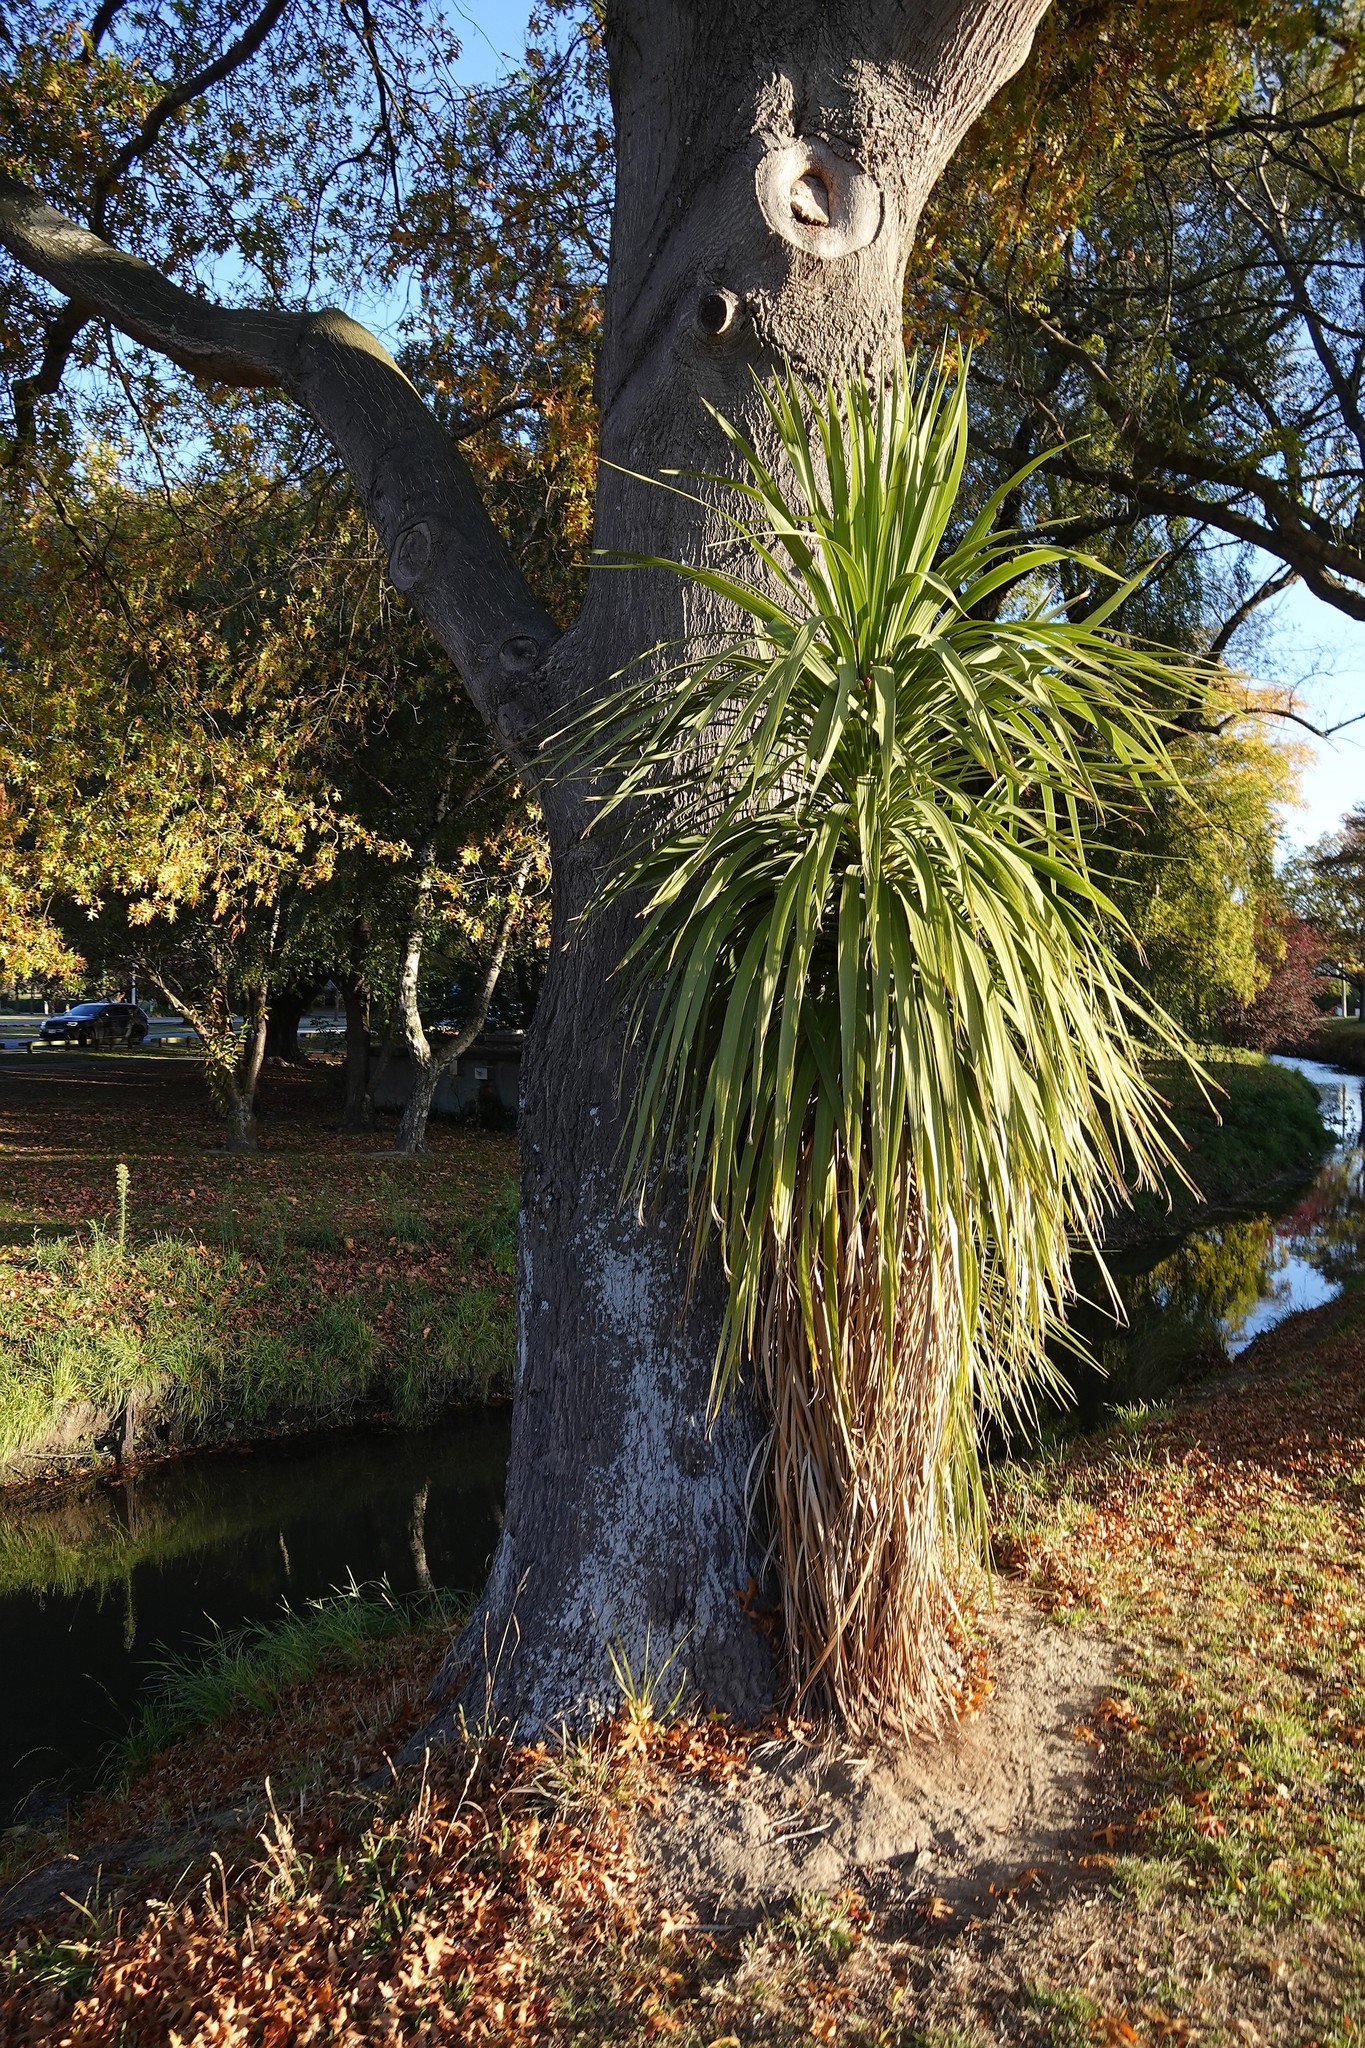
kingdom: Plantae
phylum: Tracheophyta
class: Liliopsida
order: Asparagales
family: Asparagaceae
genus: Cordyline
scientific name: Cordyline australis
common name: Cabbage-palm
